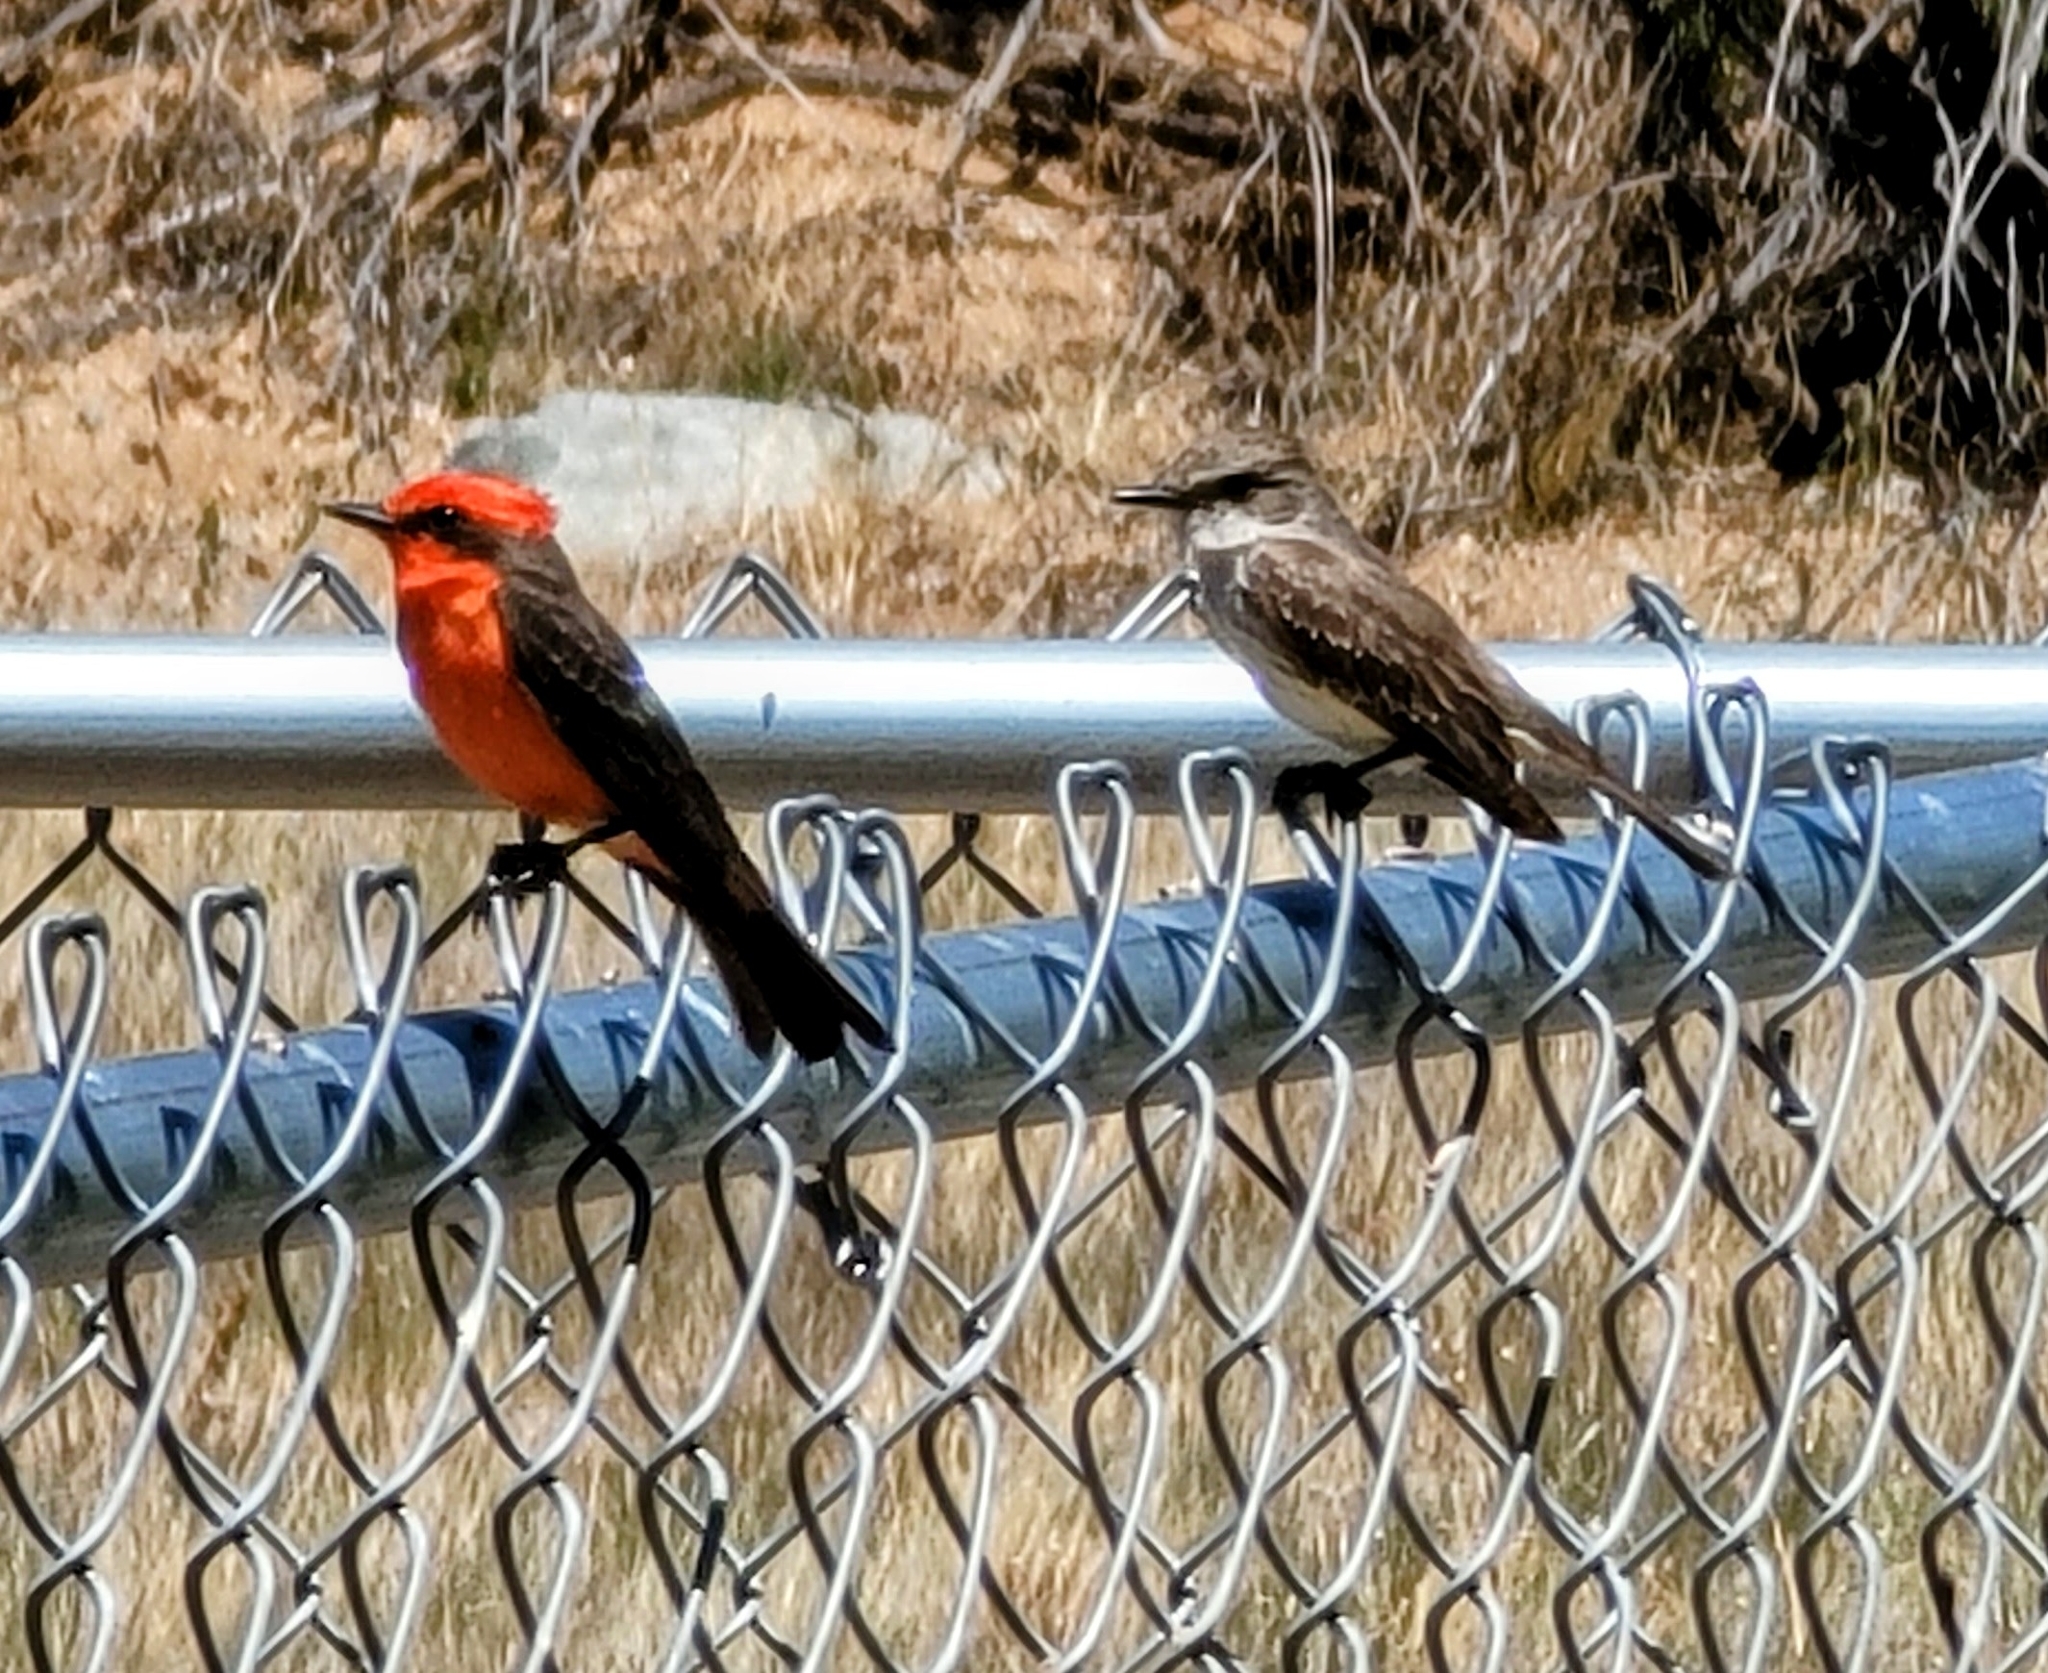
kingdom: Animalia
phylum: Chordata
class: Aves
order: Passeriformes
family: Tyrannidae
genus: Pyrocephalus
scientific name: Pyrocephalus rubinus
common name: Vermilion flycatcher
